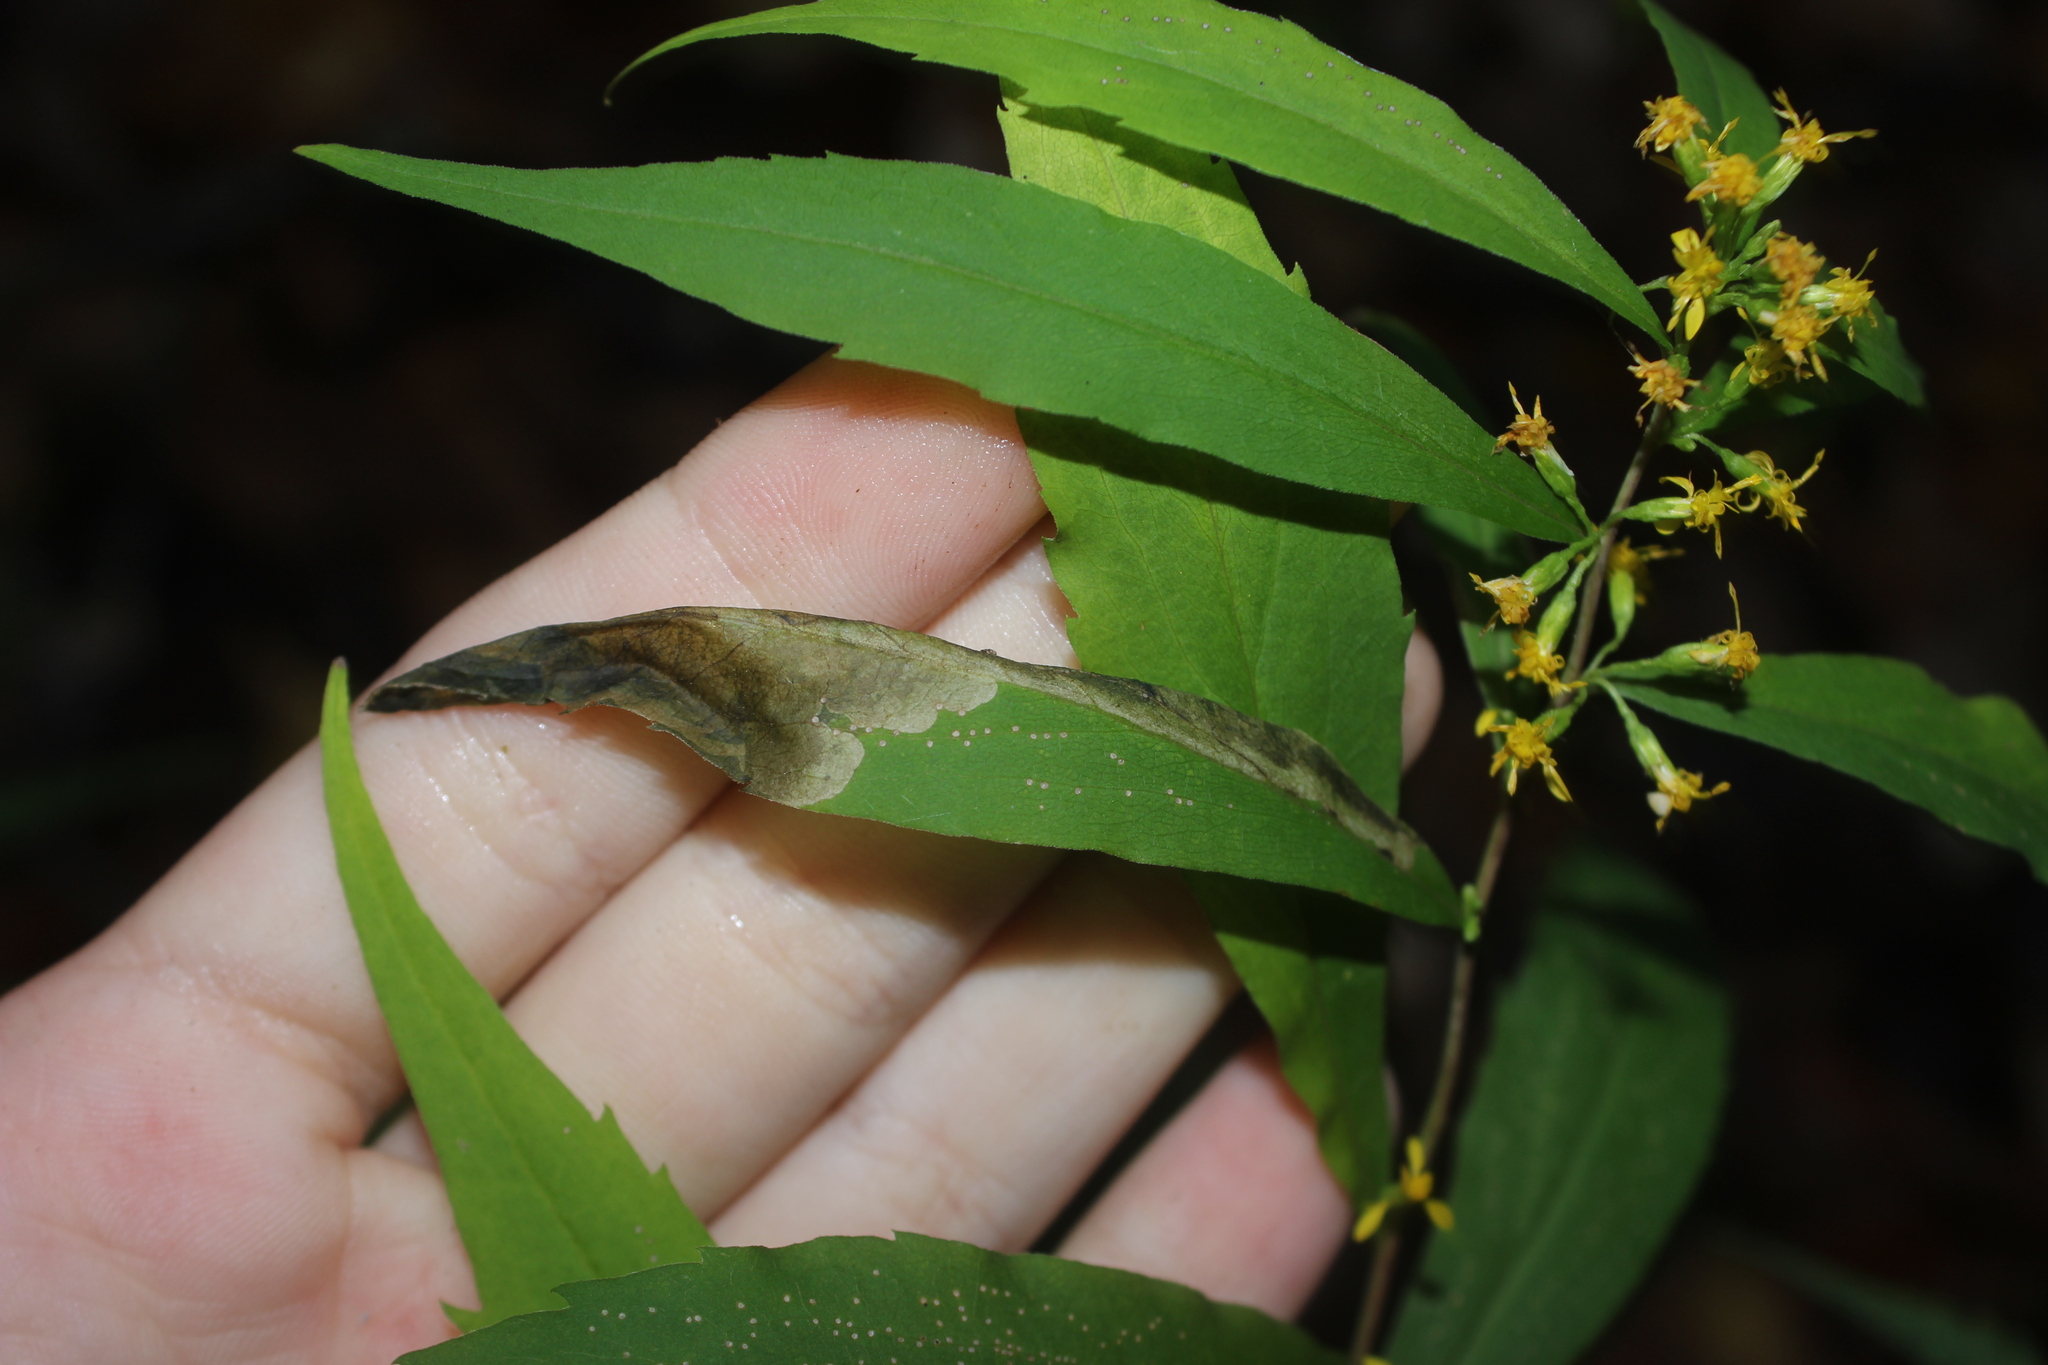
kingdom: Animalia
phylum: Arthropoda
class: Insecta
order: Diptera
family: Agromyzidae
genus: Nemorimyza
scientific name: Nemorimyza posticata
